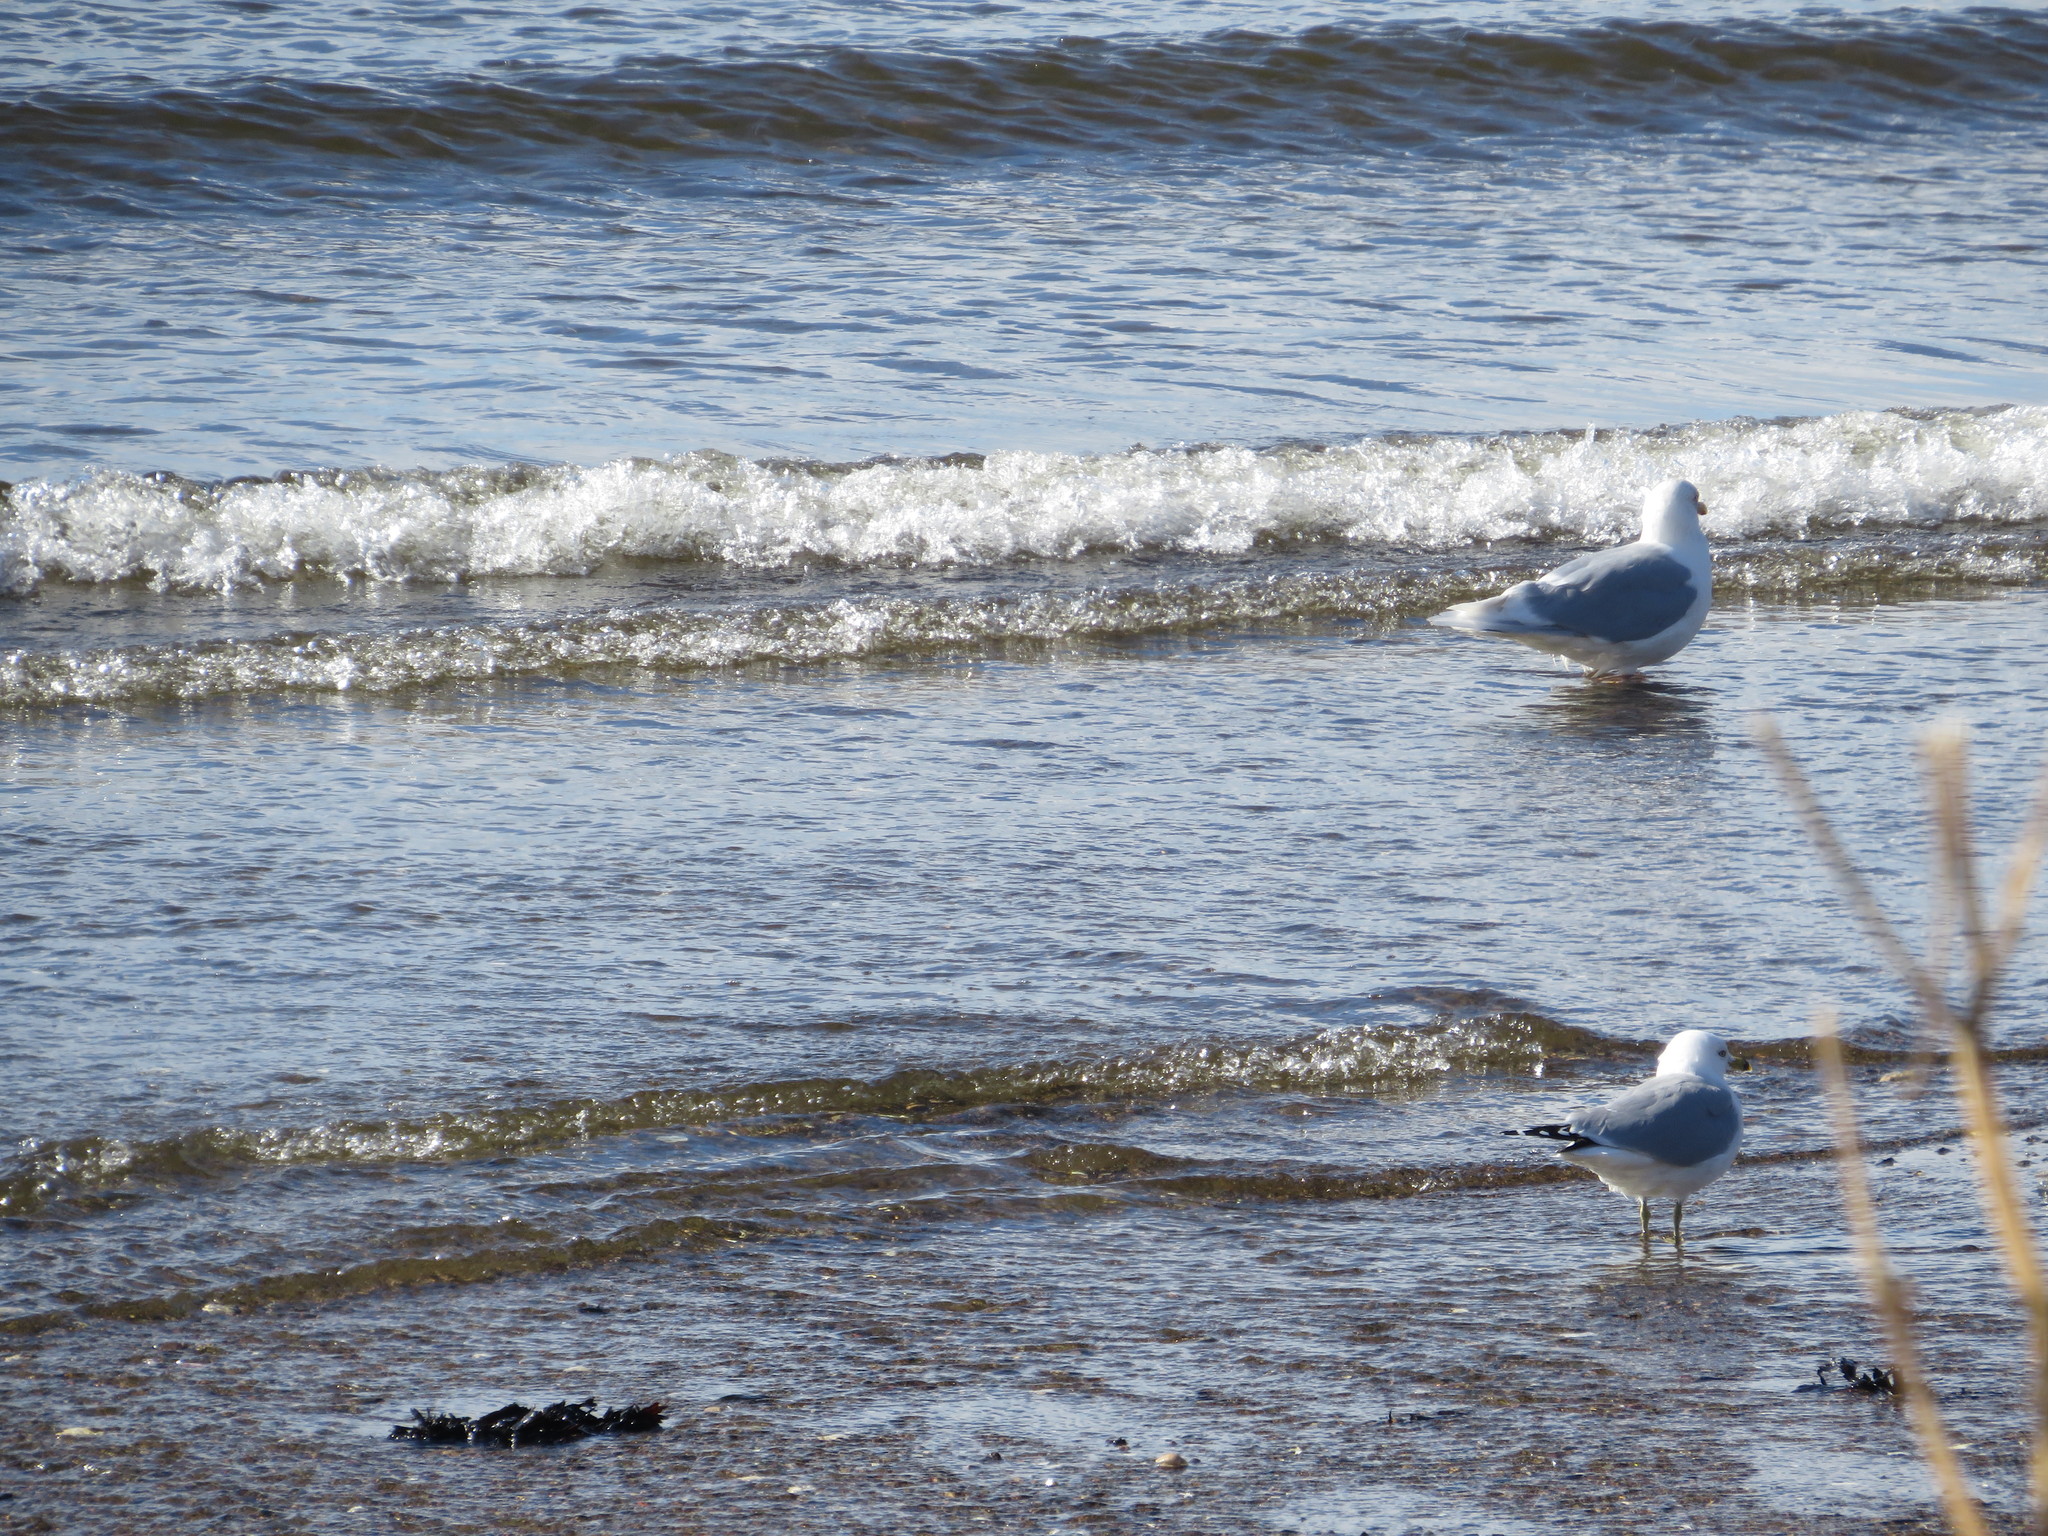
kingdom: Animalia
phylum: Chordata
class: Aves
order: Charadriiformes
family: Laridae
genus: Larus
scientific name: Larus delawarensis
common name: Ring-billed gull
